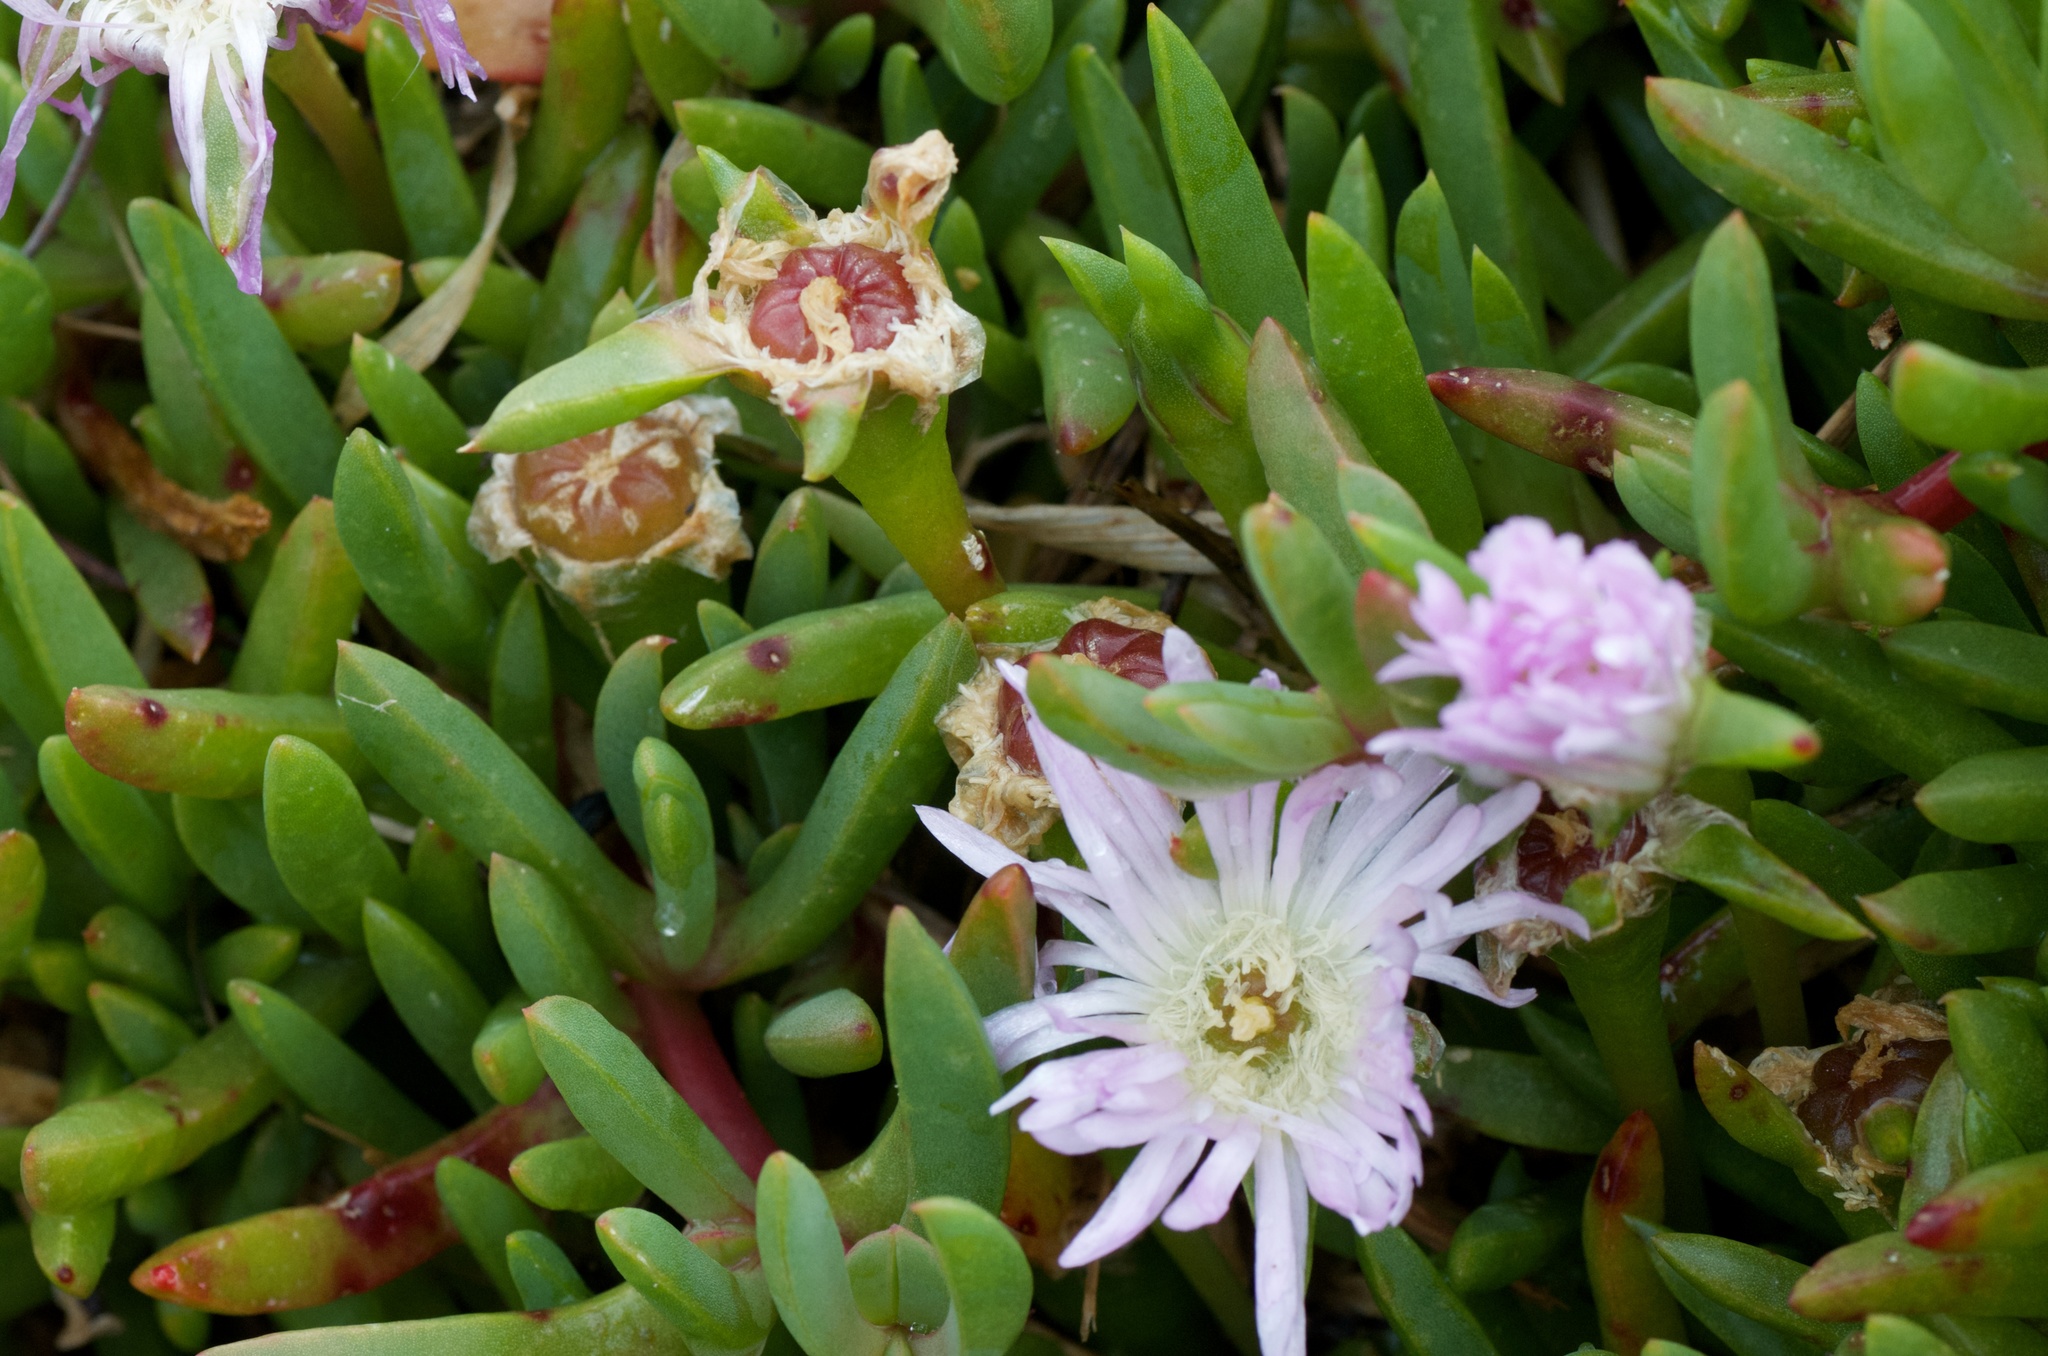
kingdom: Plantae
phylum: Tracheophyta
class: Magnoliopsida
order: Caryophyllales
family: Aizoaceae
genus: Disphyma
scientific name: Disphyma australe
